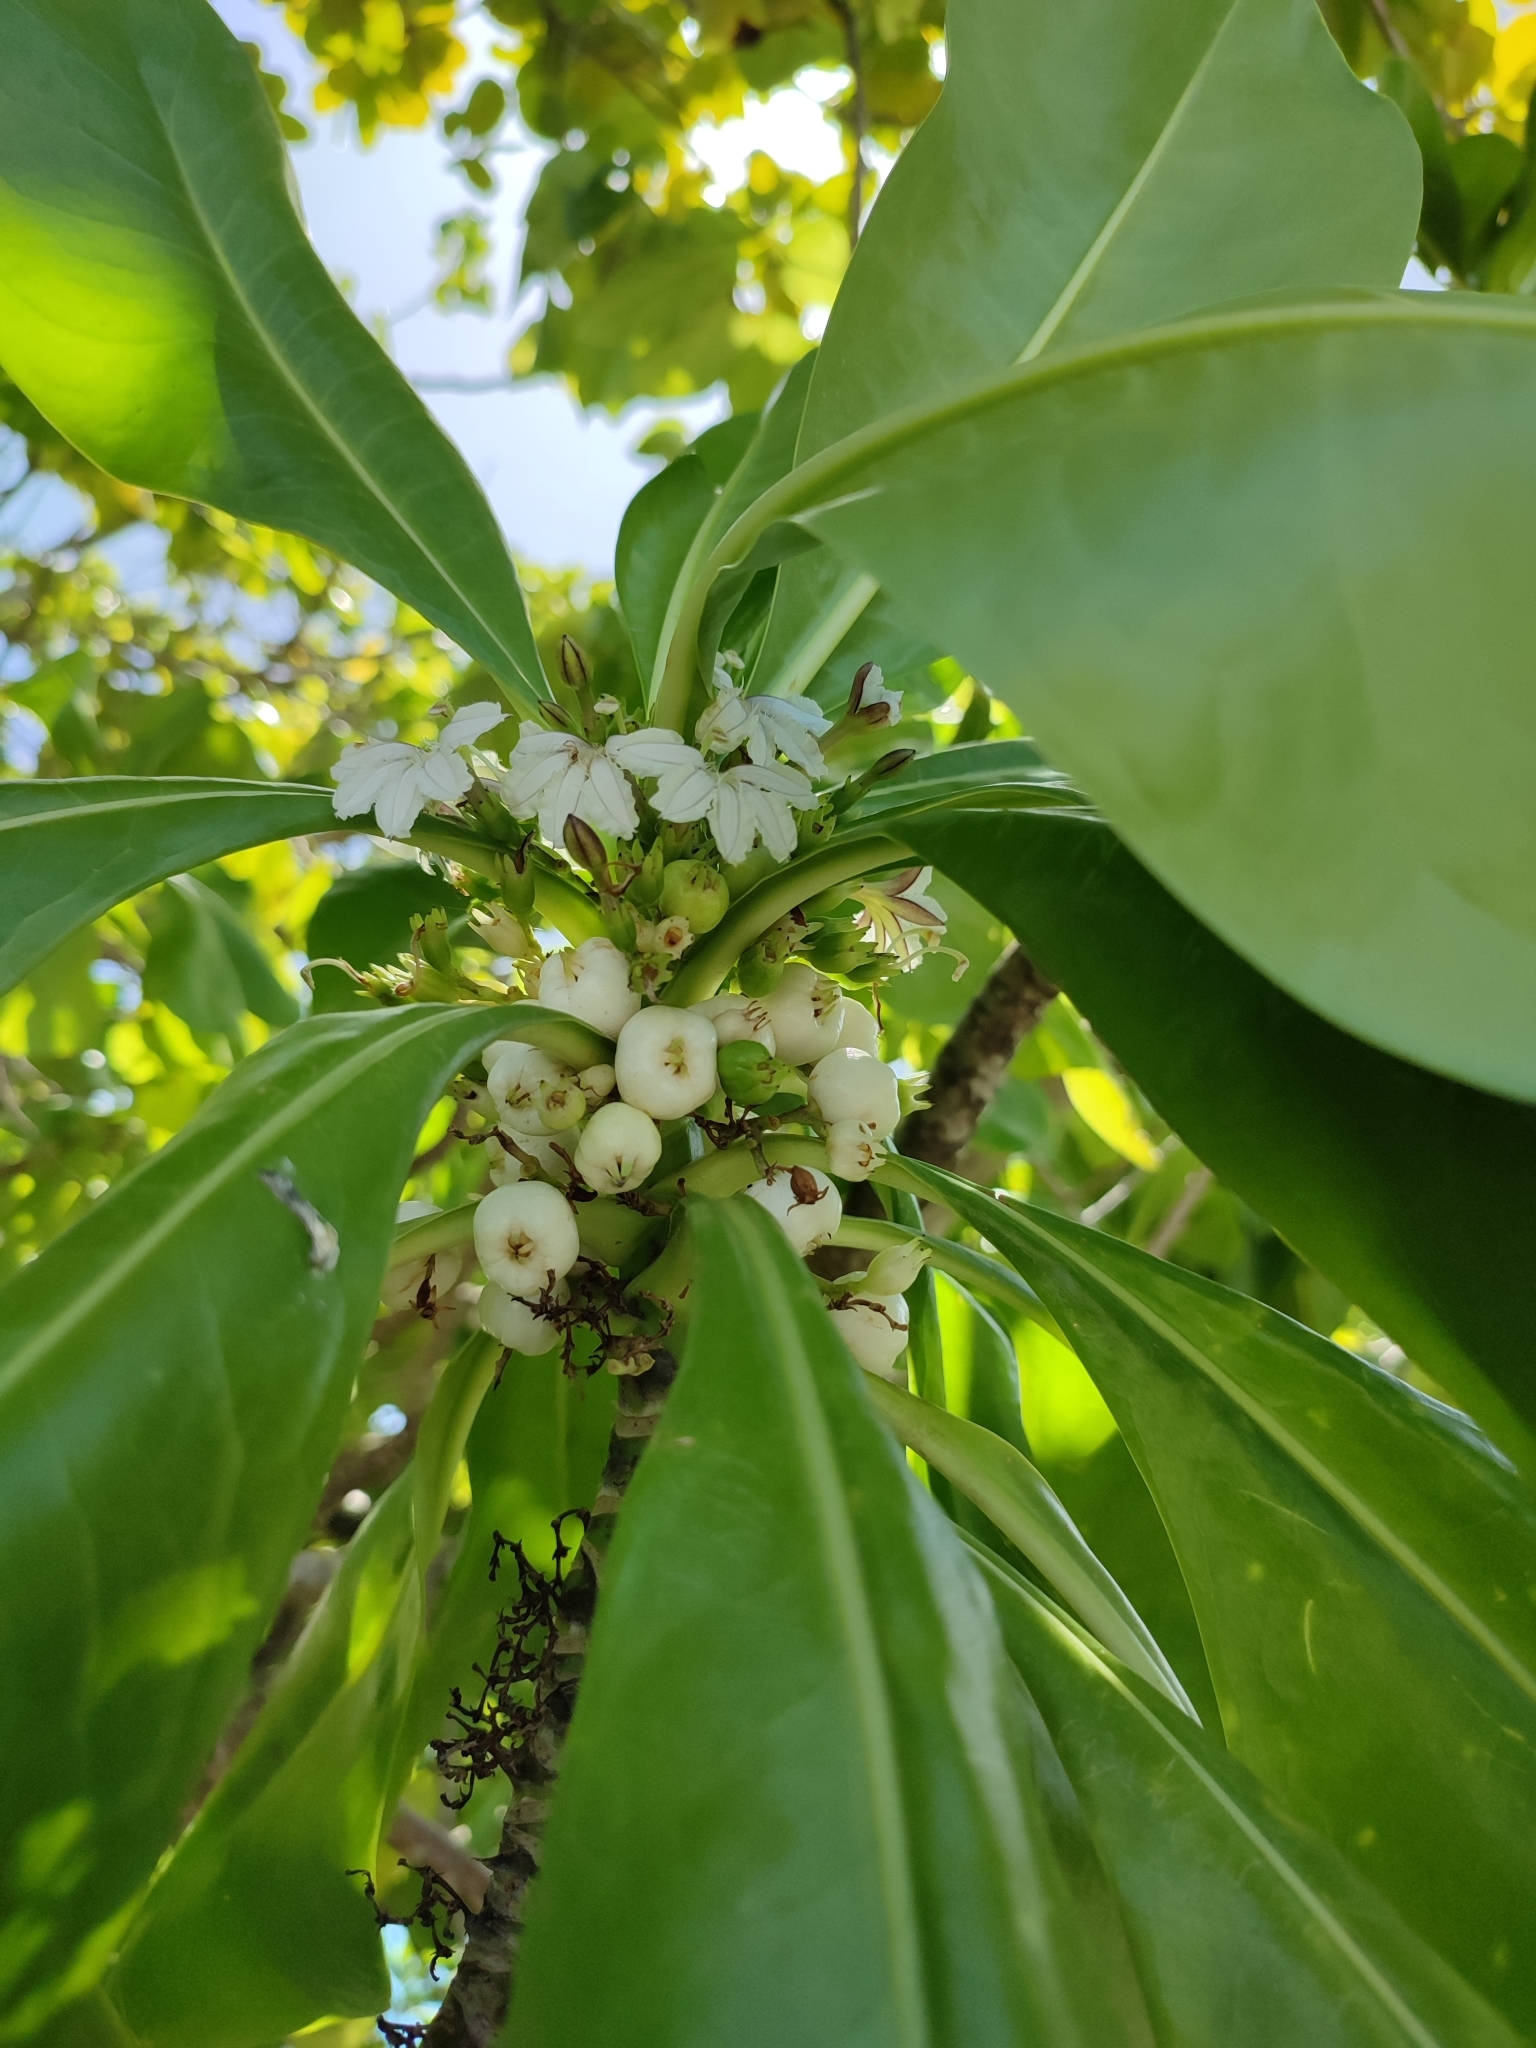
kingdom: Plantae
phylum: Tracheophyta
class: Magnoliopsida
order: Asterales
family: Goodeniaceae
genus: Scaevola
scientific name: Scaevola taccada
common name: Sea lettucetree
